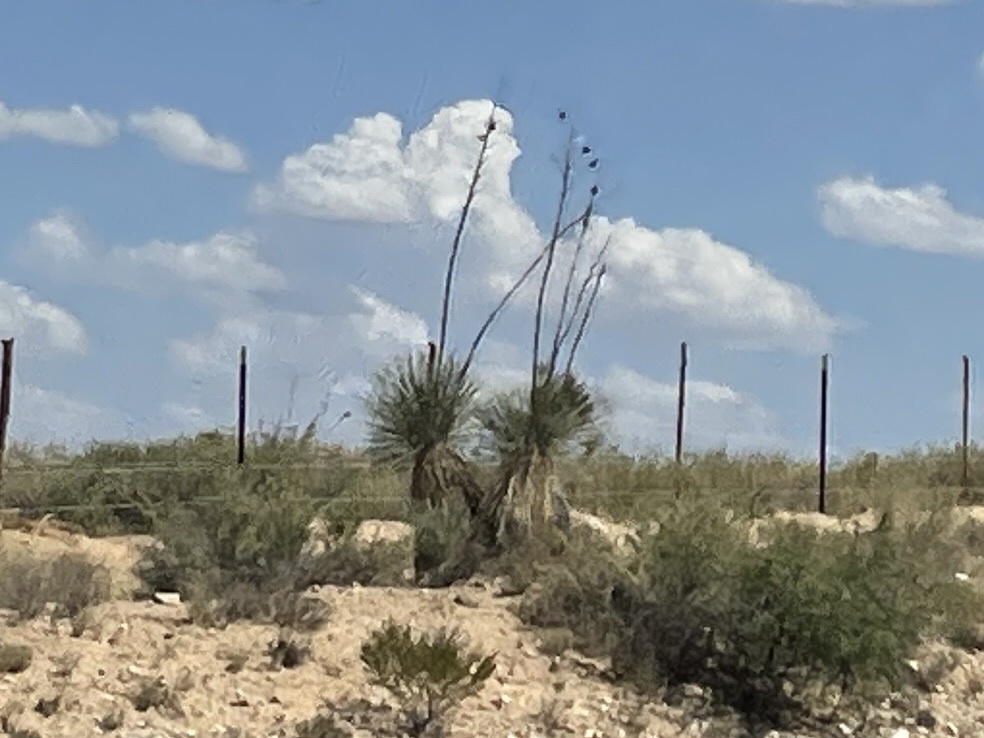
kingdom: Plantae
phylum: Tracheophyta
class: Liliopsida
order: Asparagales
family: Asparagaceae
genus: Yucca
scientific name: Yucca elata
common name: Palmella
